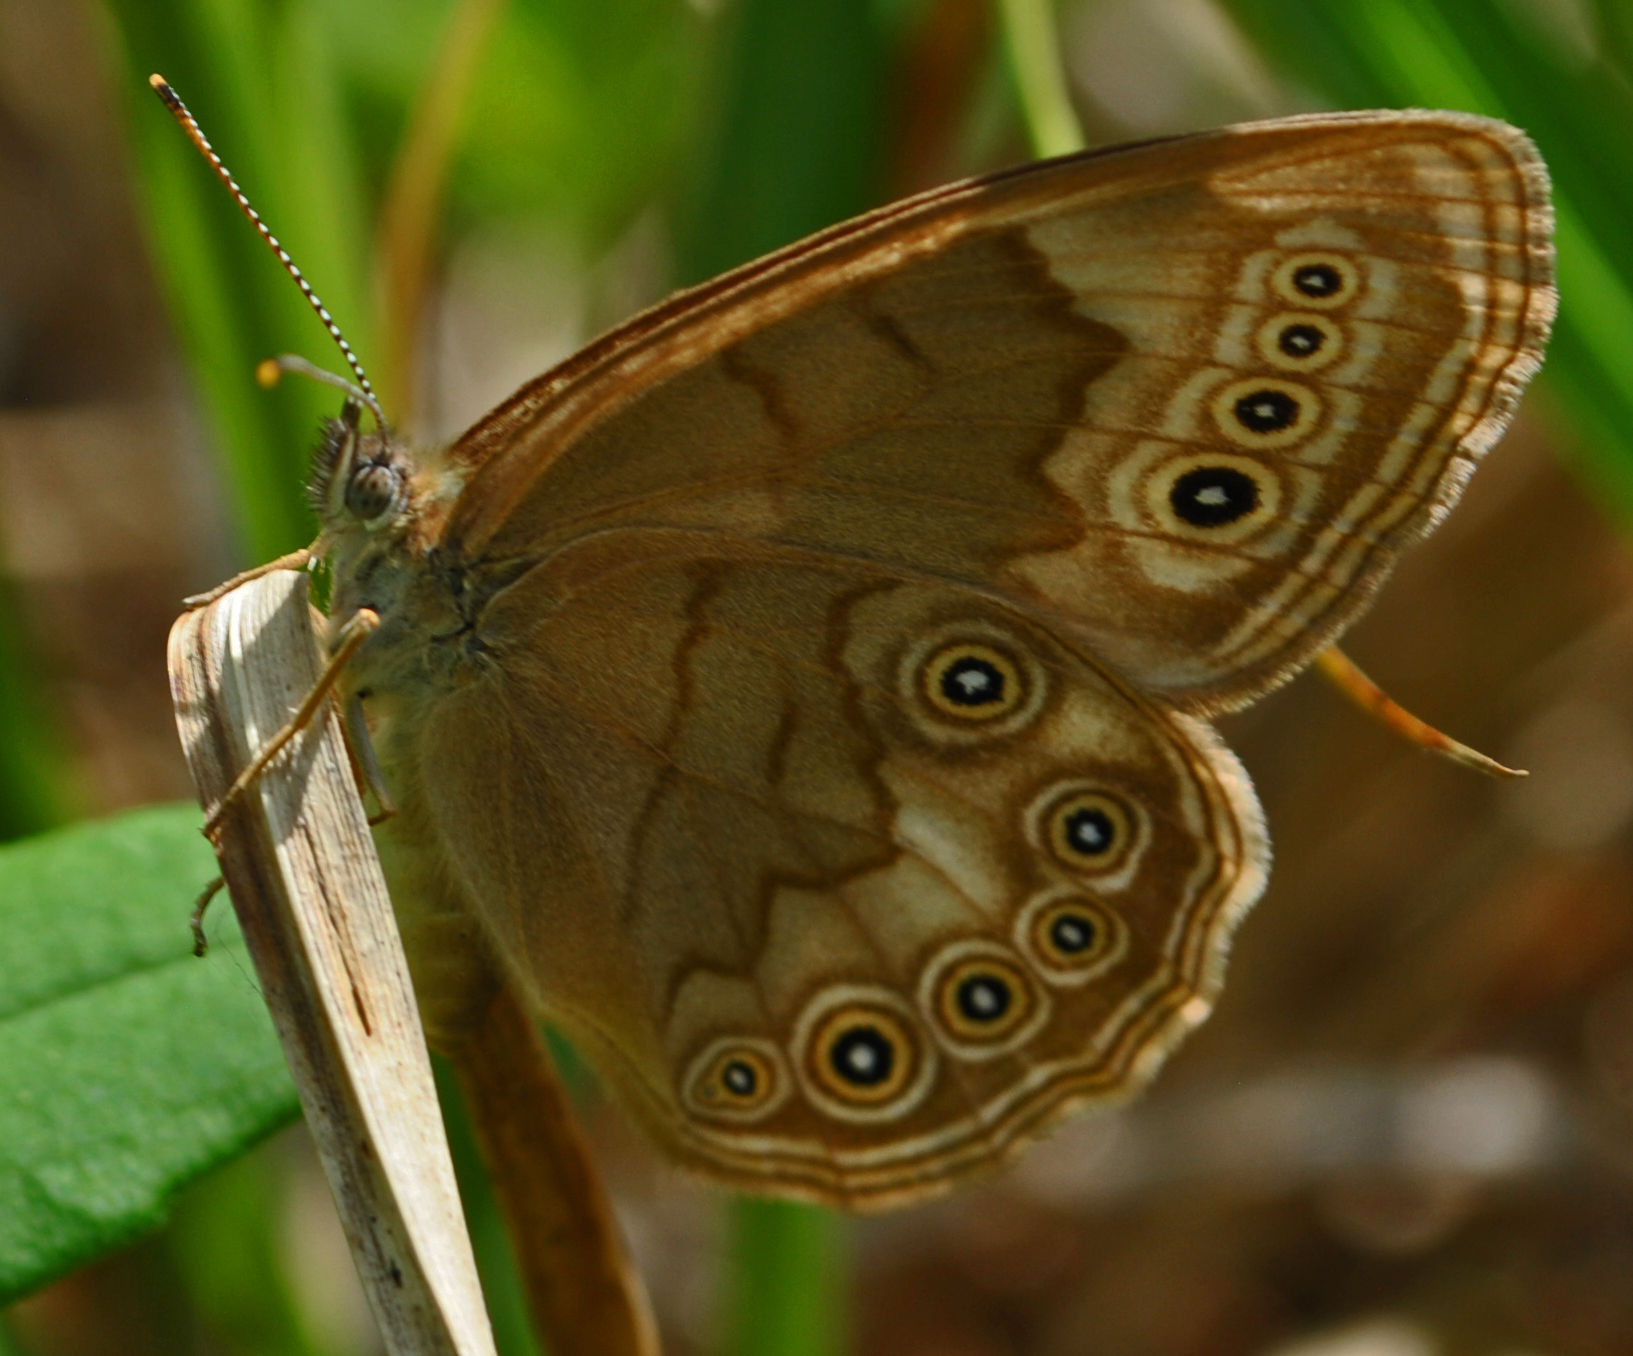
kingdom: Animalia
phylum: Arthropoda
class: Insecta
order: Lepidoptera
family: Nymphalidae
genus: Lethe
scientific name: Lethe eurydice
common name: Eyed brown
